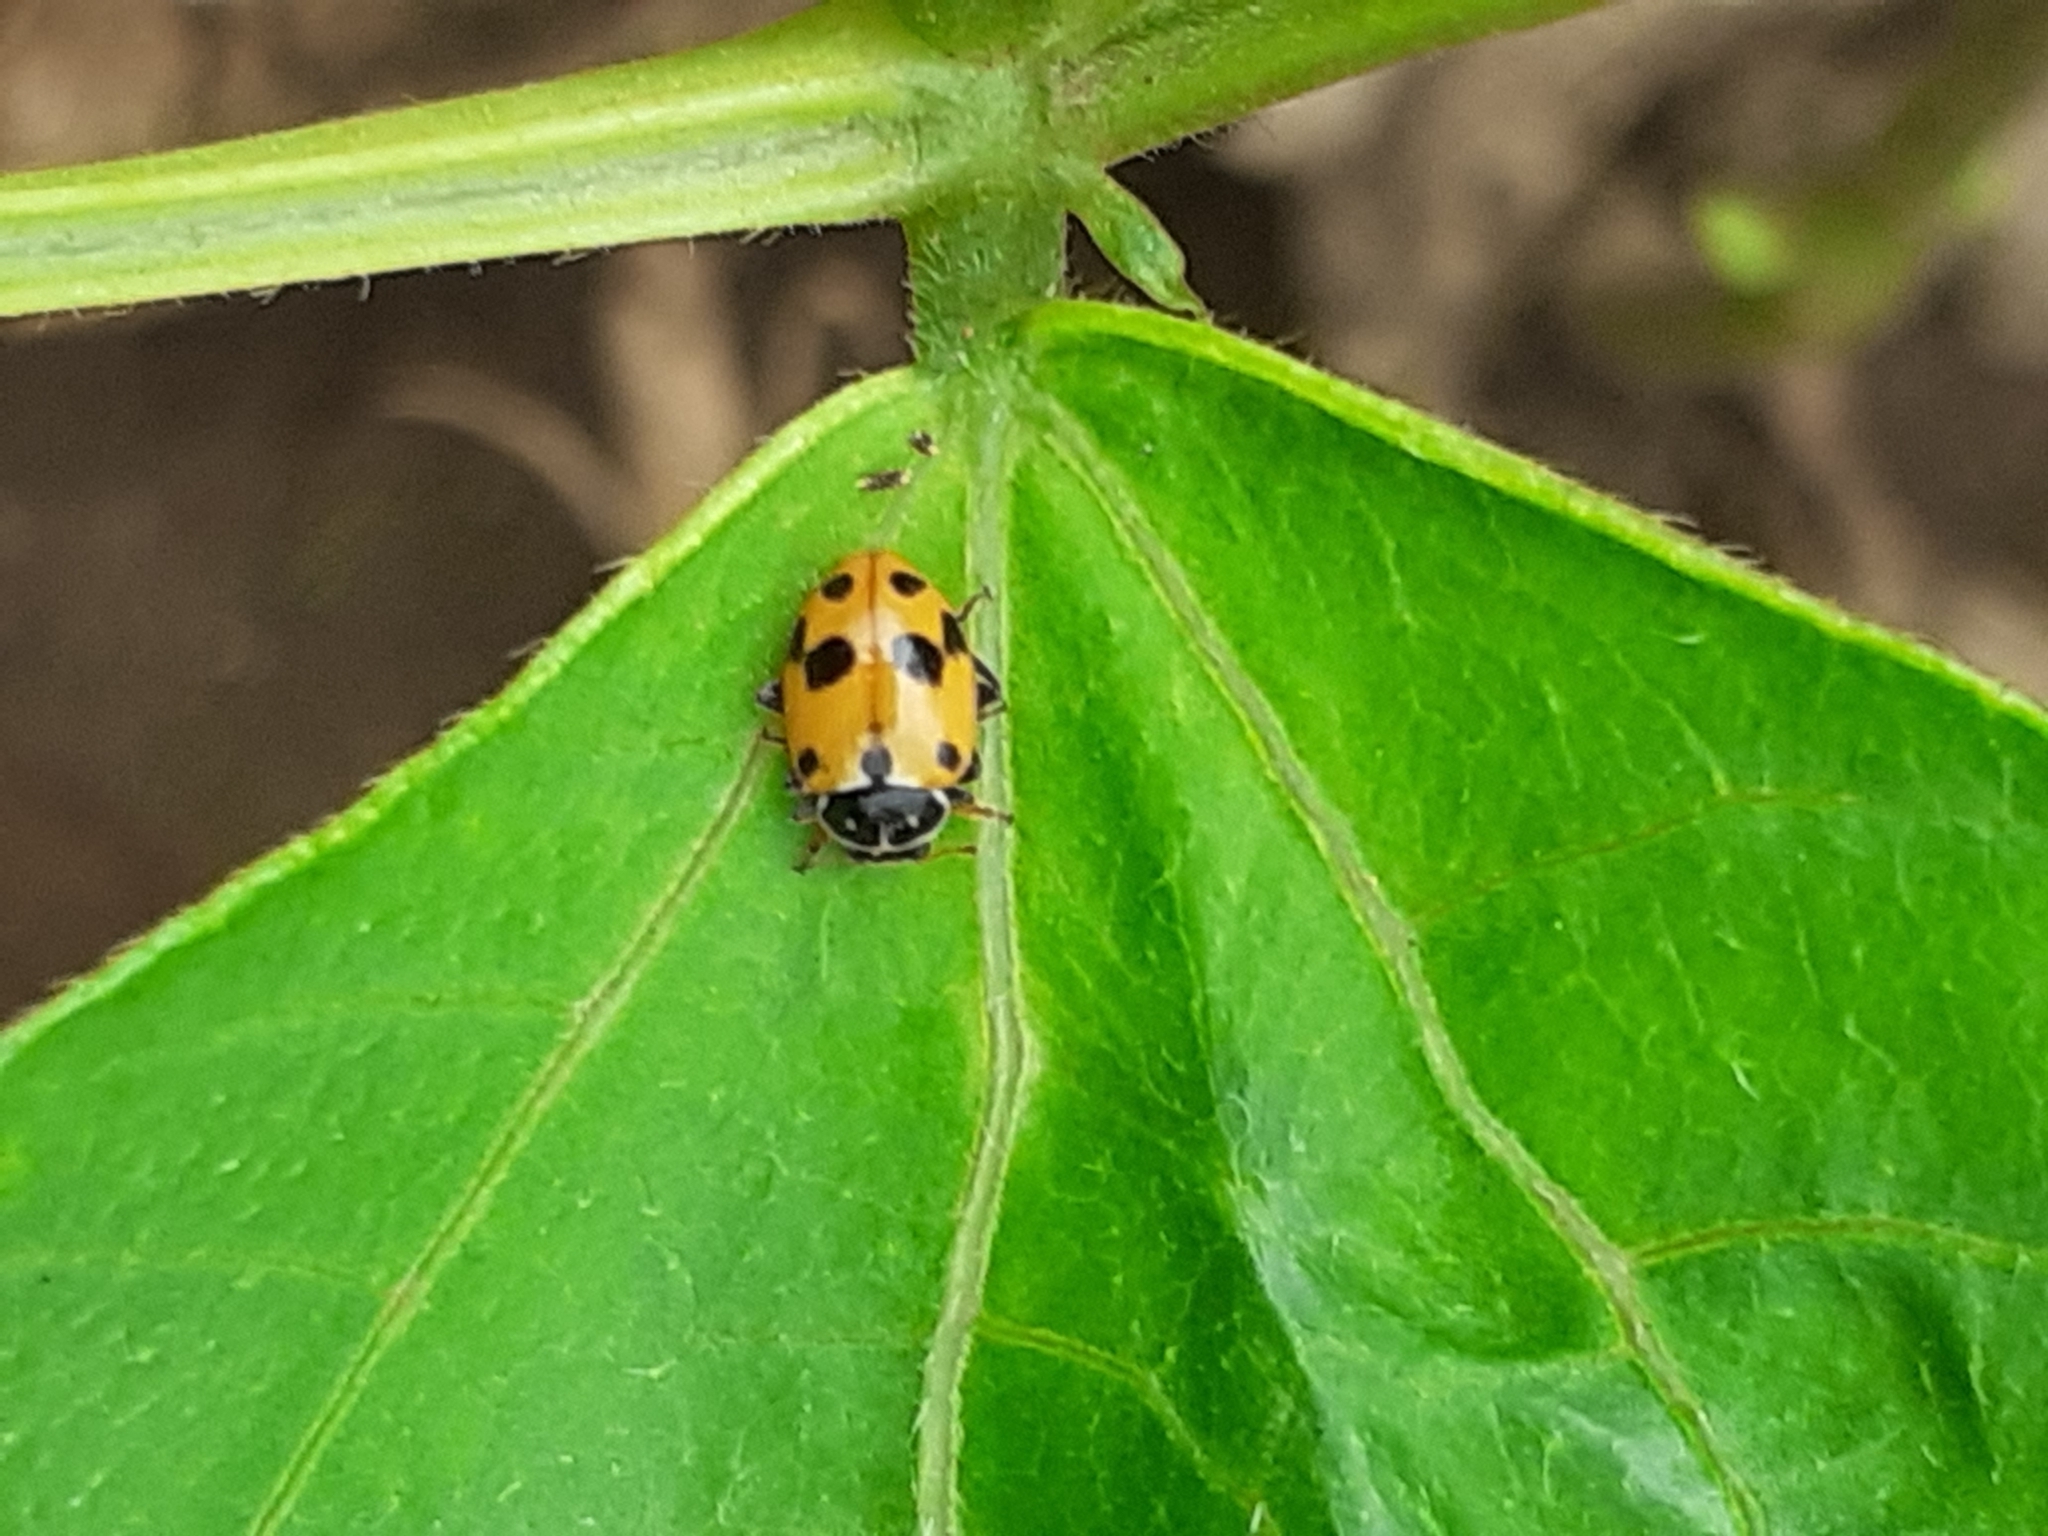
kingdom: Animalia
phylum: Arthropoda
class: Insecta
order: Coleoptera
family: Coccinellidae
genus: Hippodamia
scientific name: Hippodamia variegata
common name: Ladybird beetle
